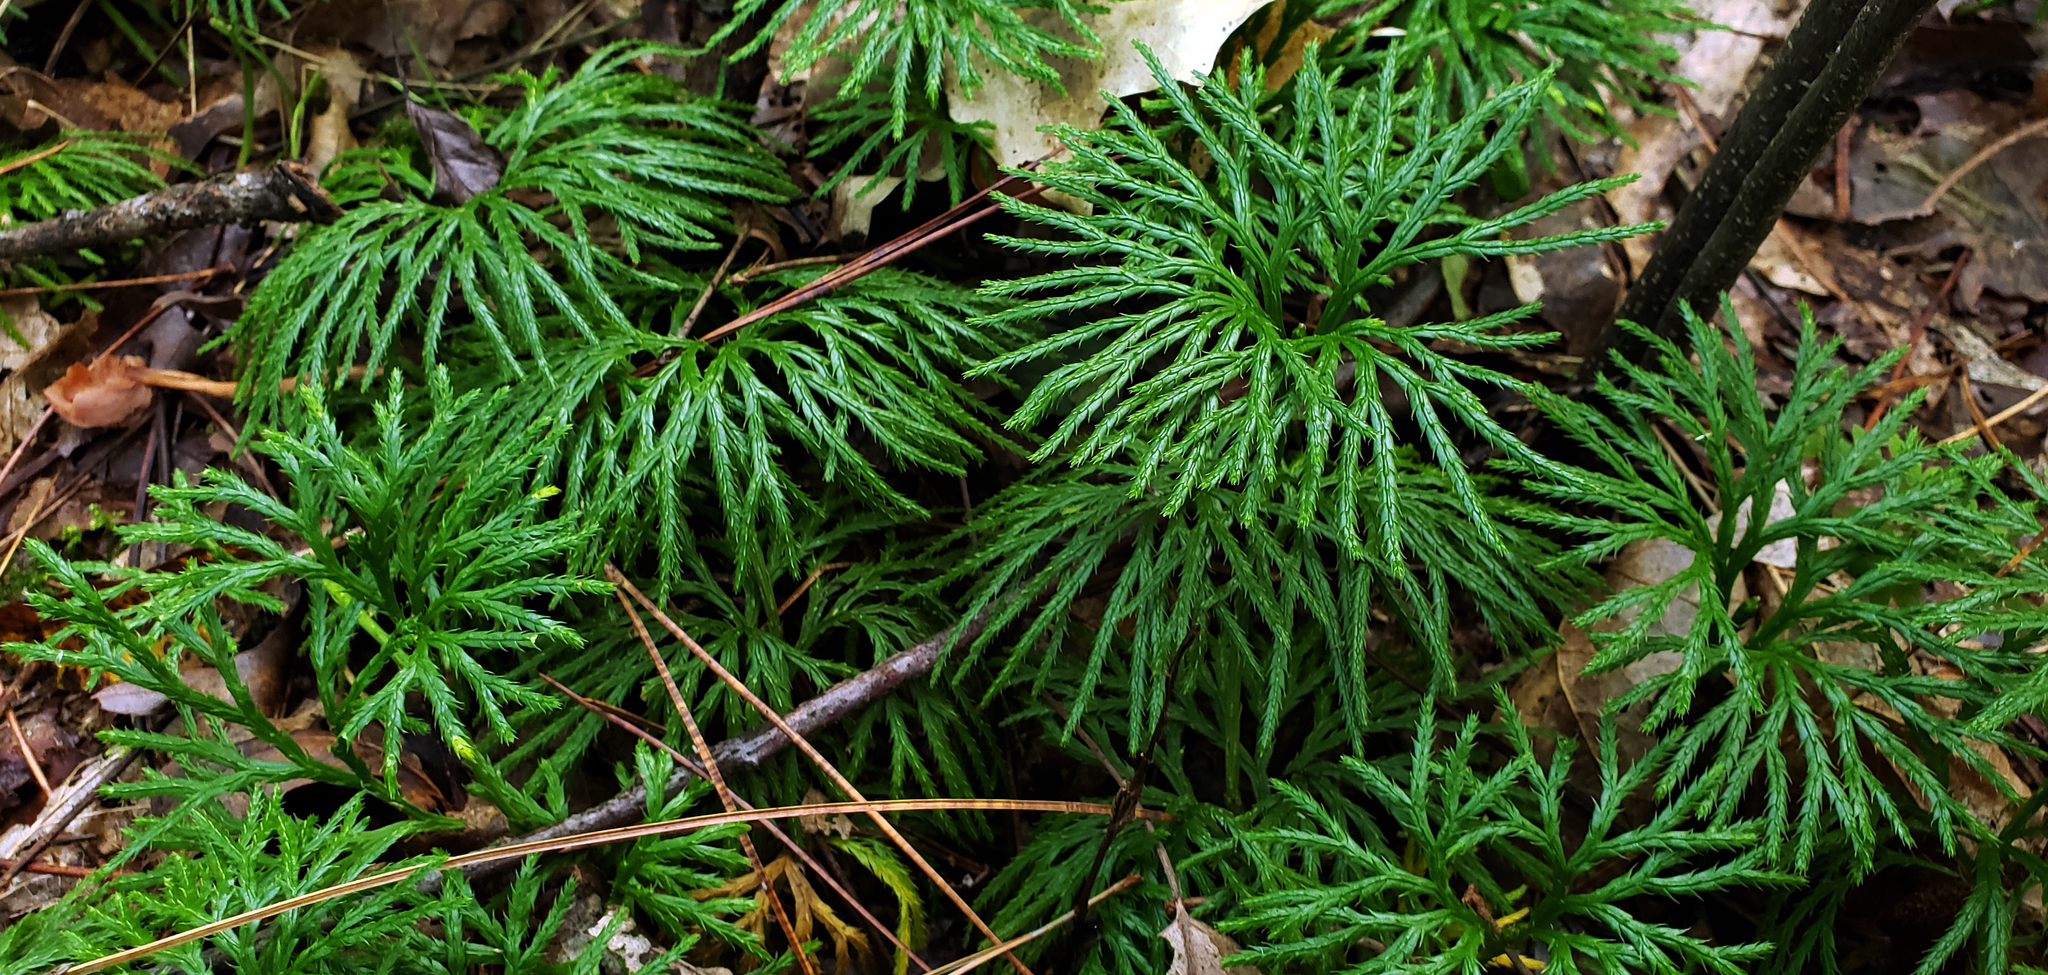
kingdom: Plantae
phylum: Tracheophyta
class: Lycopodiopsida
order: Lycopodiales
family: Lycopodiaceae
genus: Diphasiastrum
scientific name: Diphasiastrum digitatum
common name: Southern running-pine
